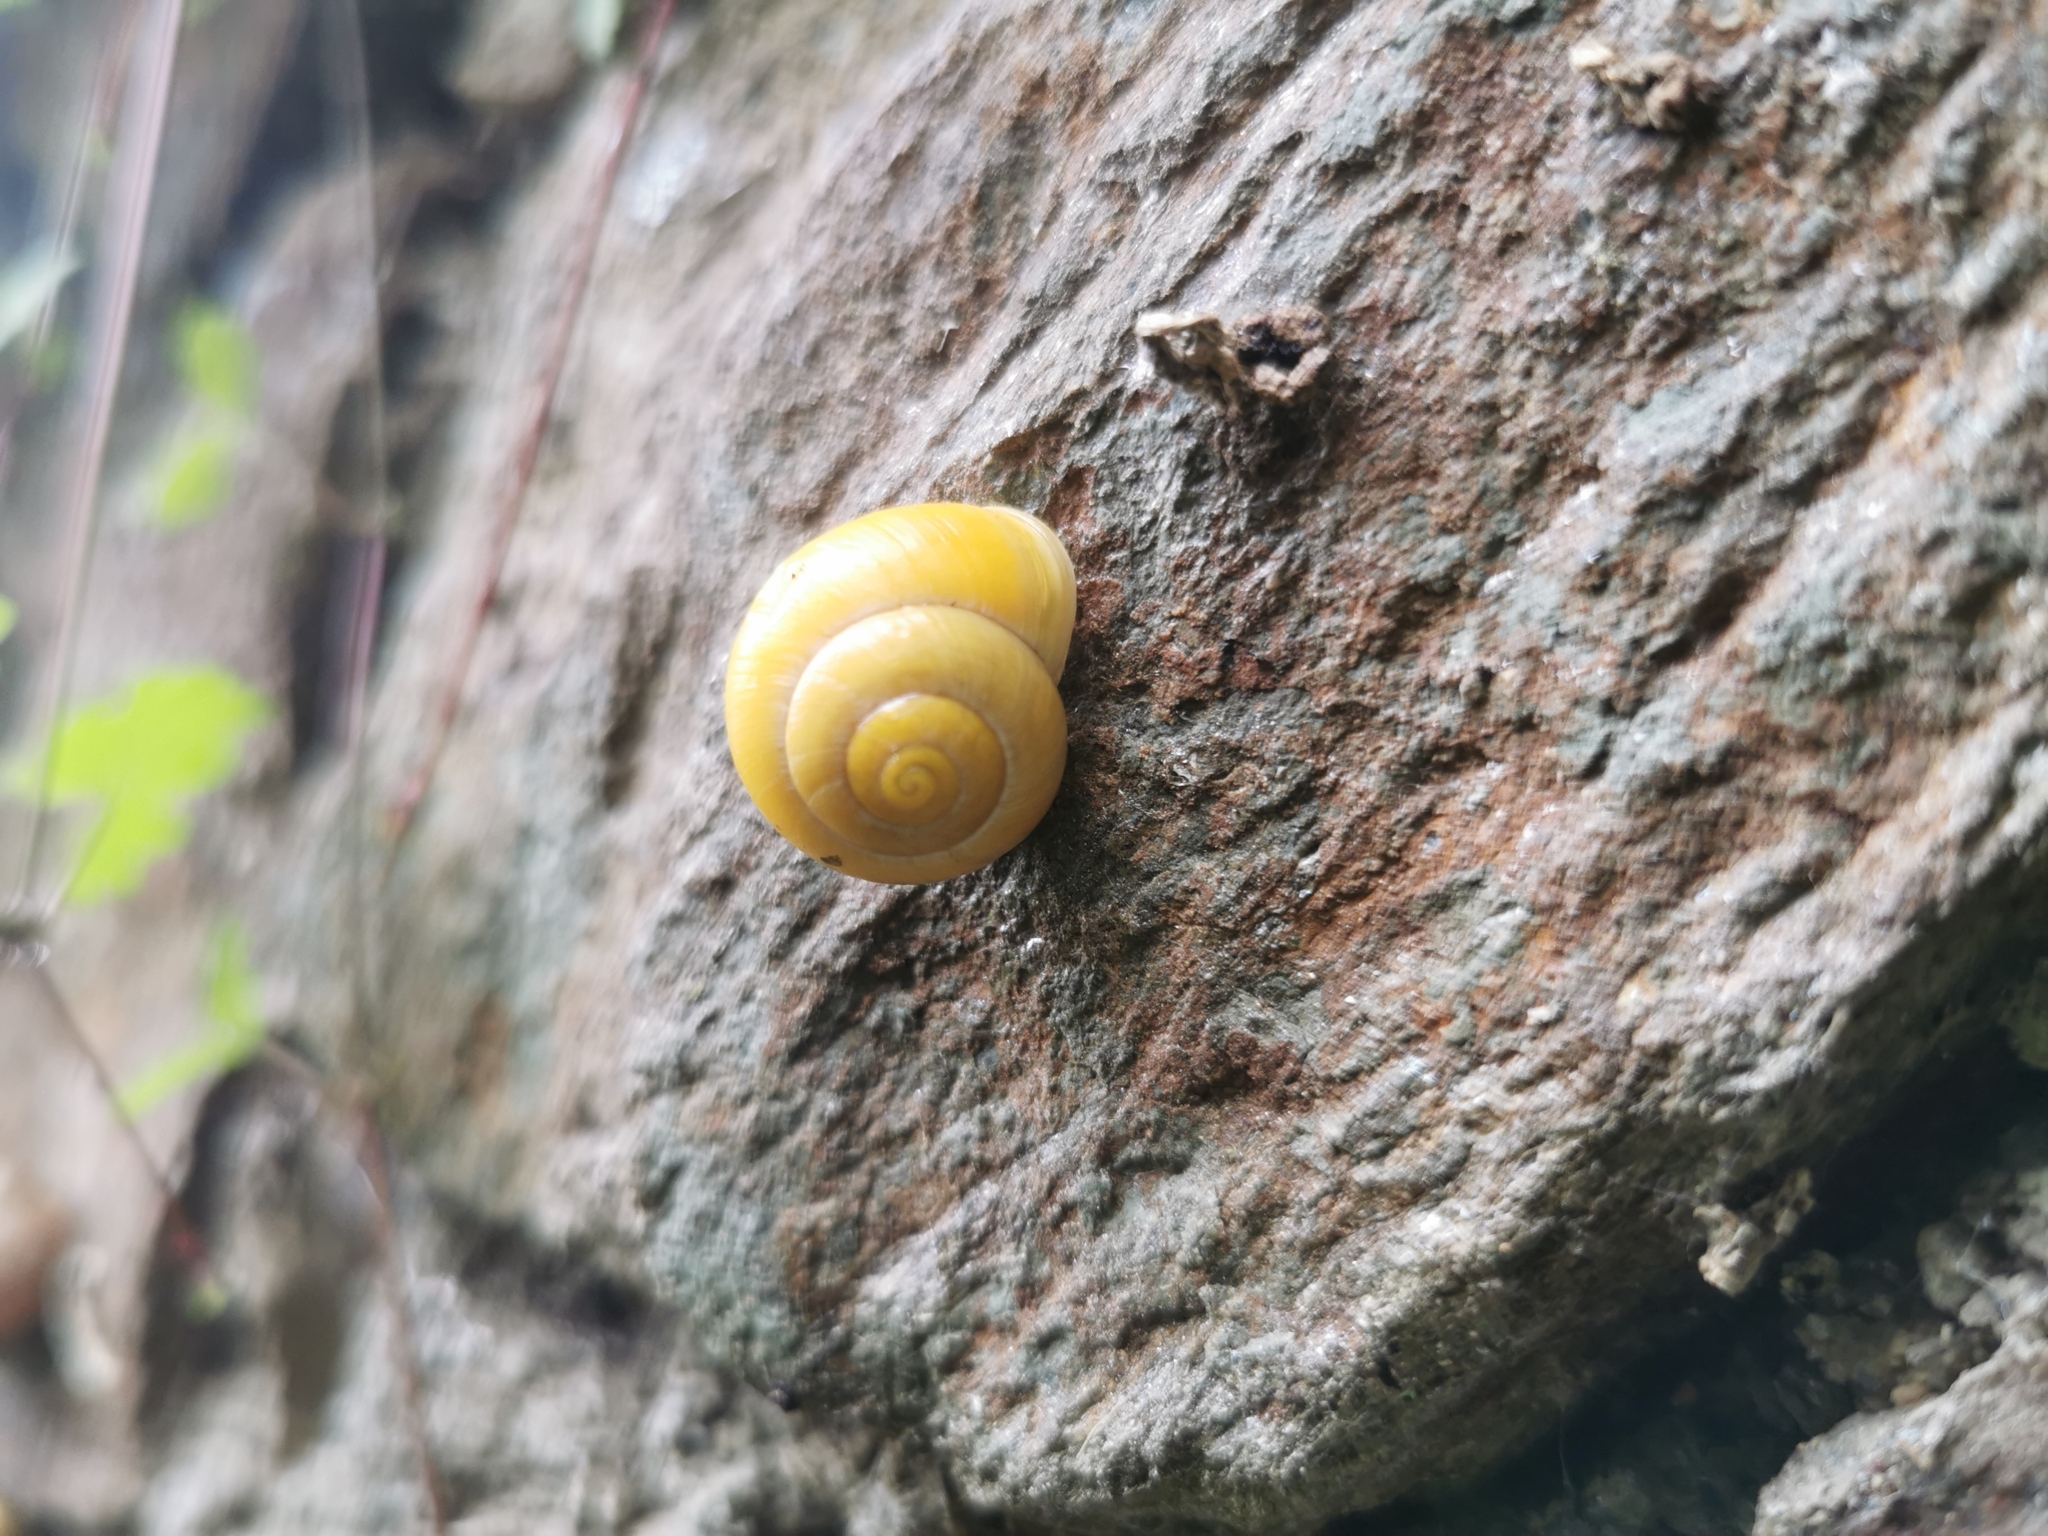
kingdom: Animalia
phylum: Mollusca
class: Gastropoda
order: Stylommatophora
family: Helicidae
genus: Cepaea
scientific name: Cepaea hortensis
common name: White-lip gardensnail
